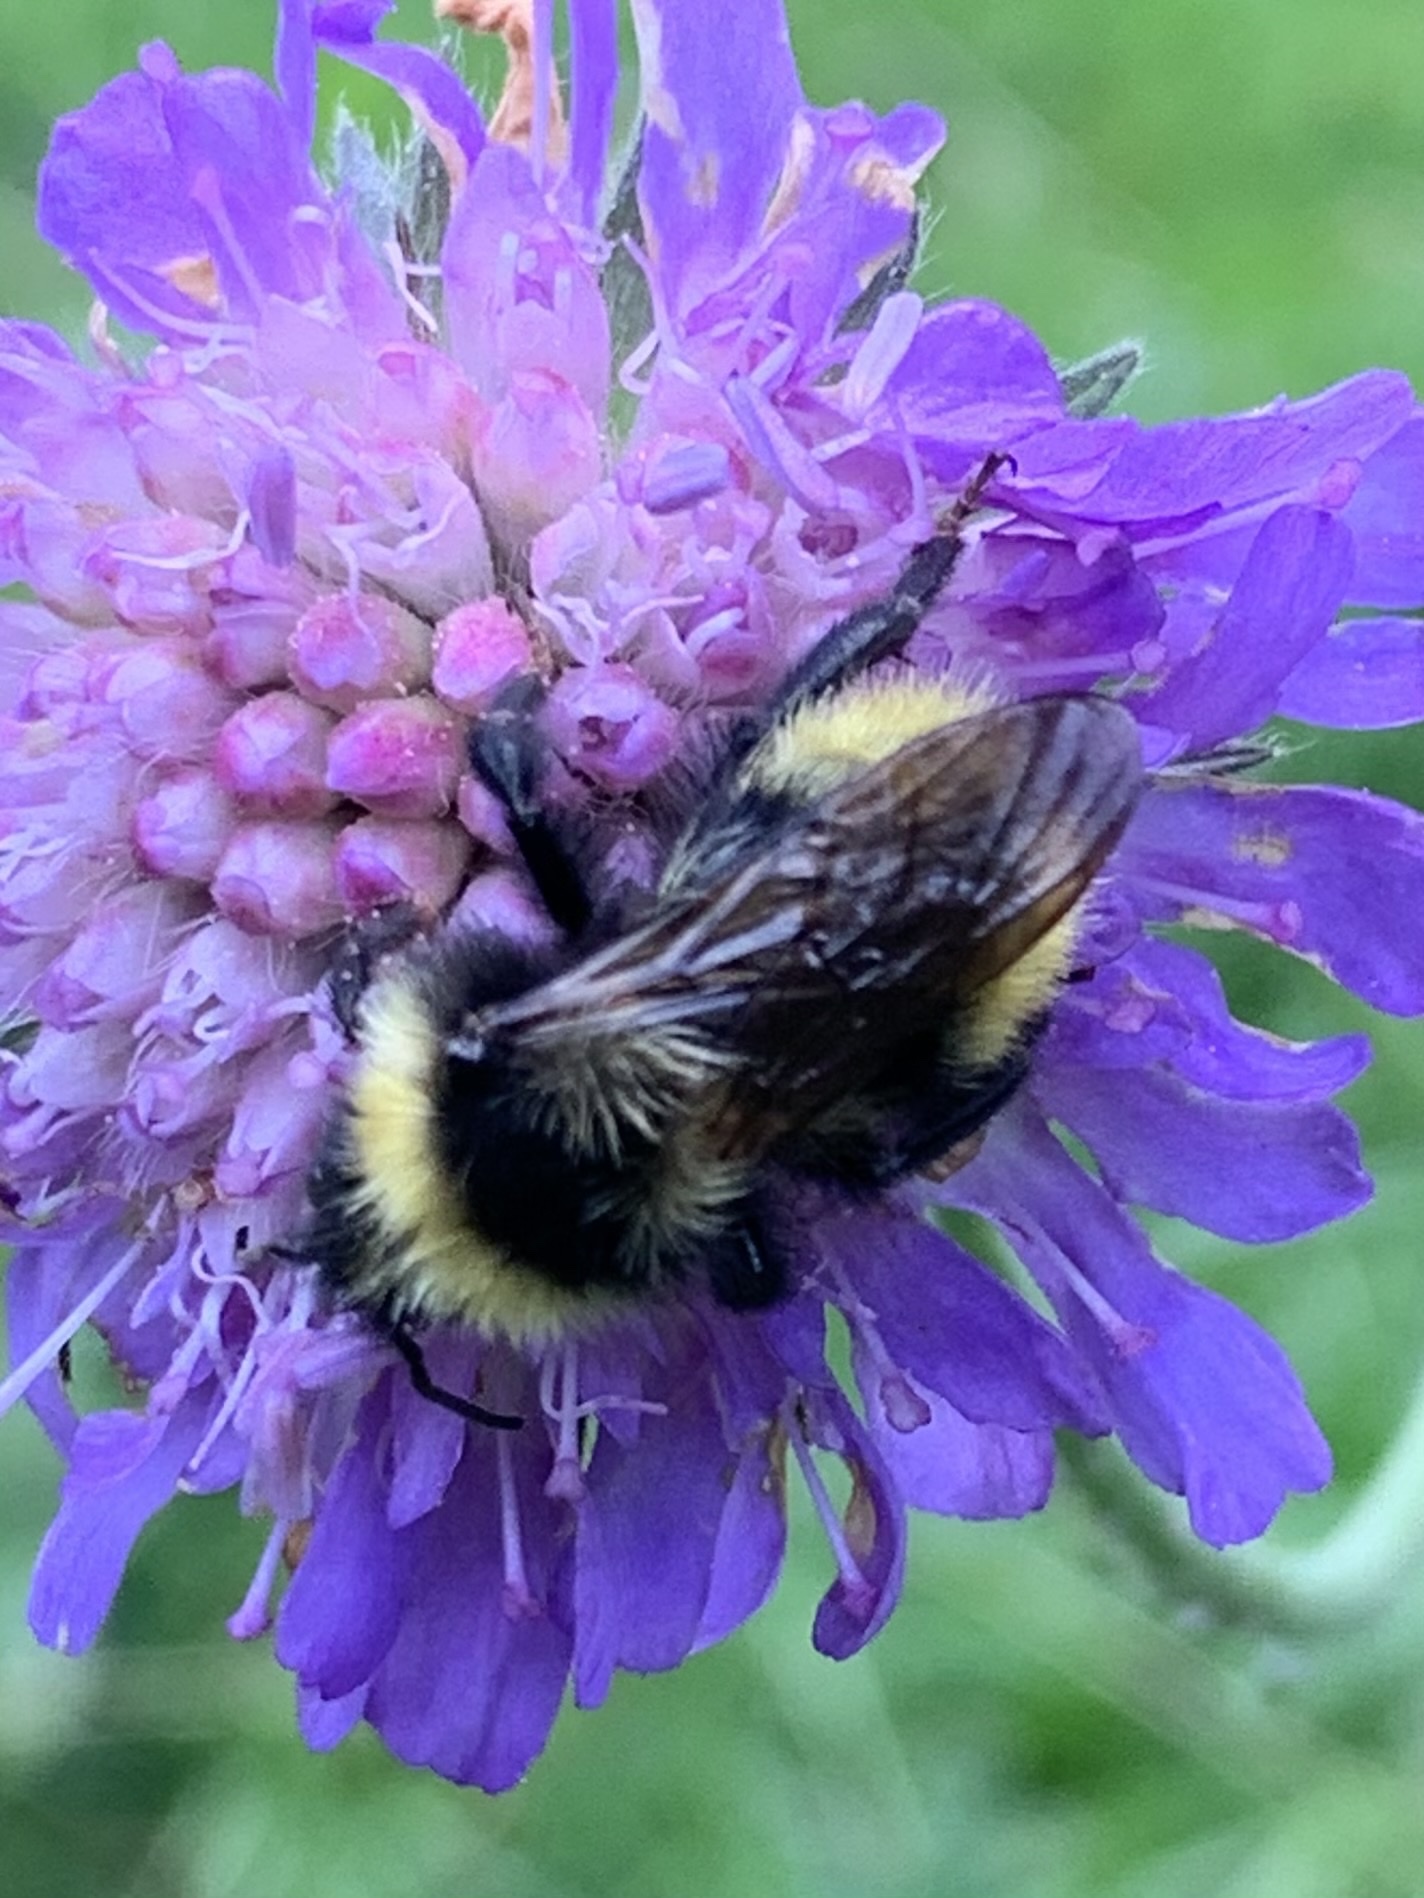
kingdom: Animalia
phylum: Arthropoda
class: Insecta
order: Hymenoptera
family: Apidae
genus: Bombus
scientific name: Bombus campestris
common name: Field cuckoo-bee
